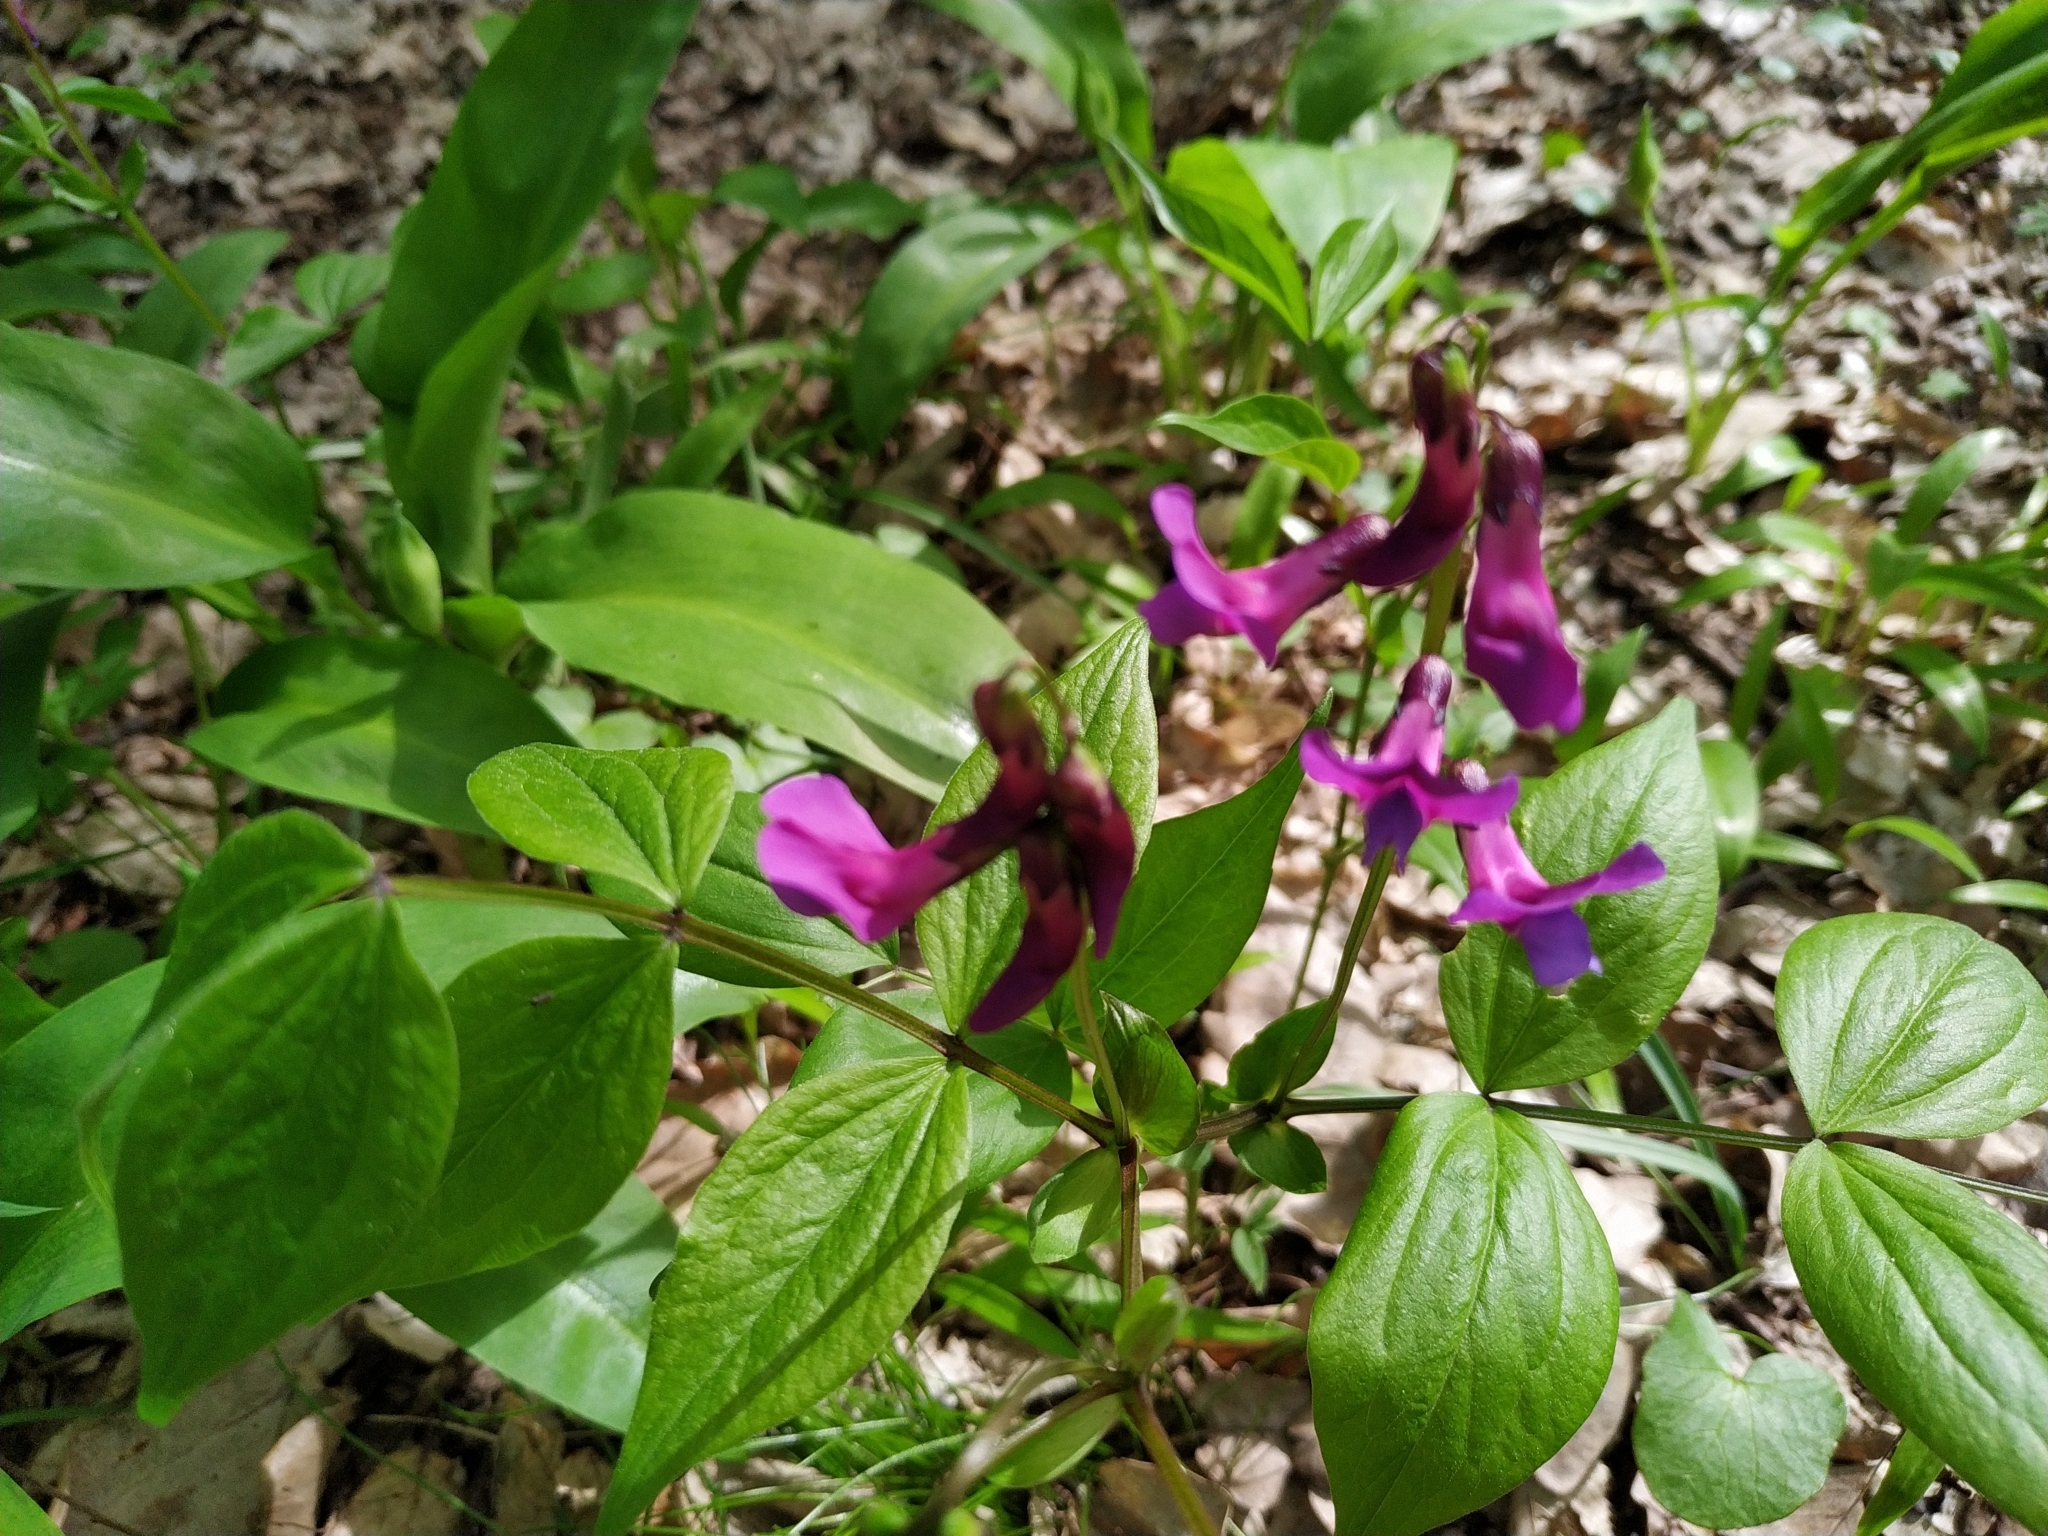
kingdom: Plantae
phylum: Tracheophyta
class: Magnoliopsida
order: Fabales
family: Fabaceae
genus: Lathyrus
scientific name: Lathyrus vernus
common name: Spring pea
